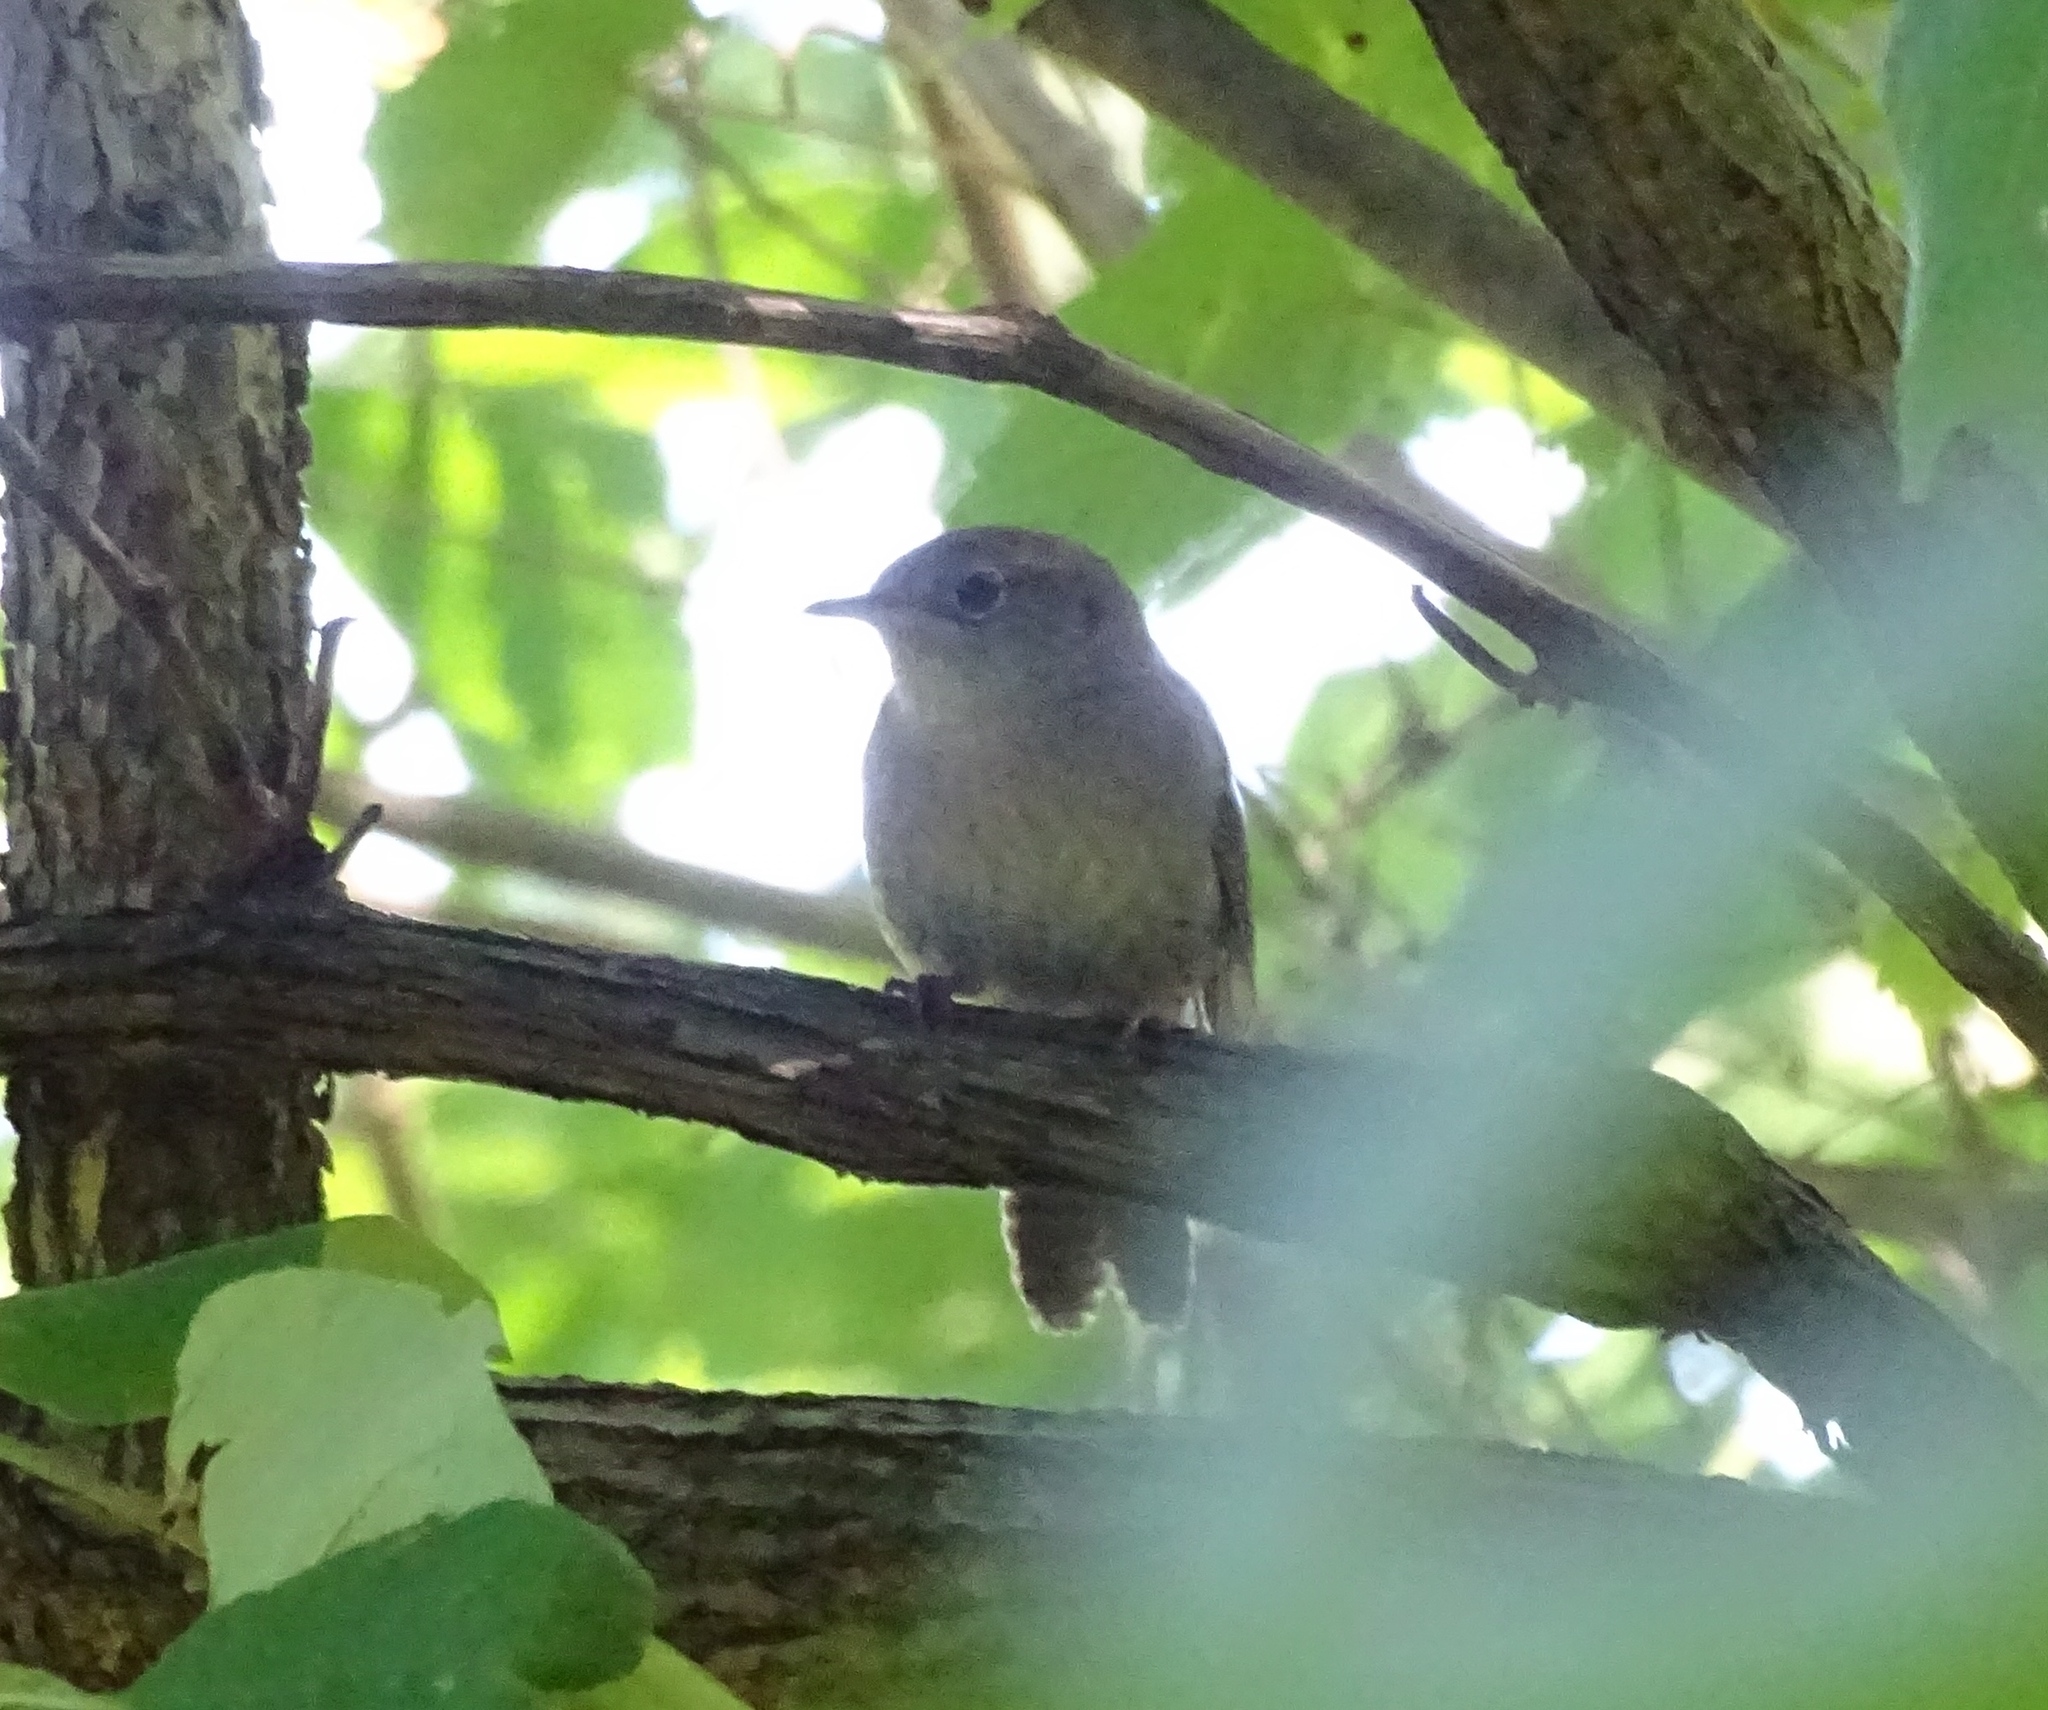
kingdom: Animalia
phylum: Chordata
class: Aves
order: Passeriformes
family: Troglodytidae
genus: Troglodytes
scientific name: Troglodytes aedon
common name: House wren
